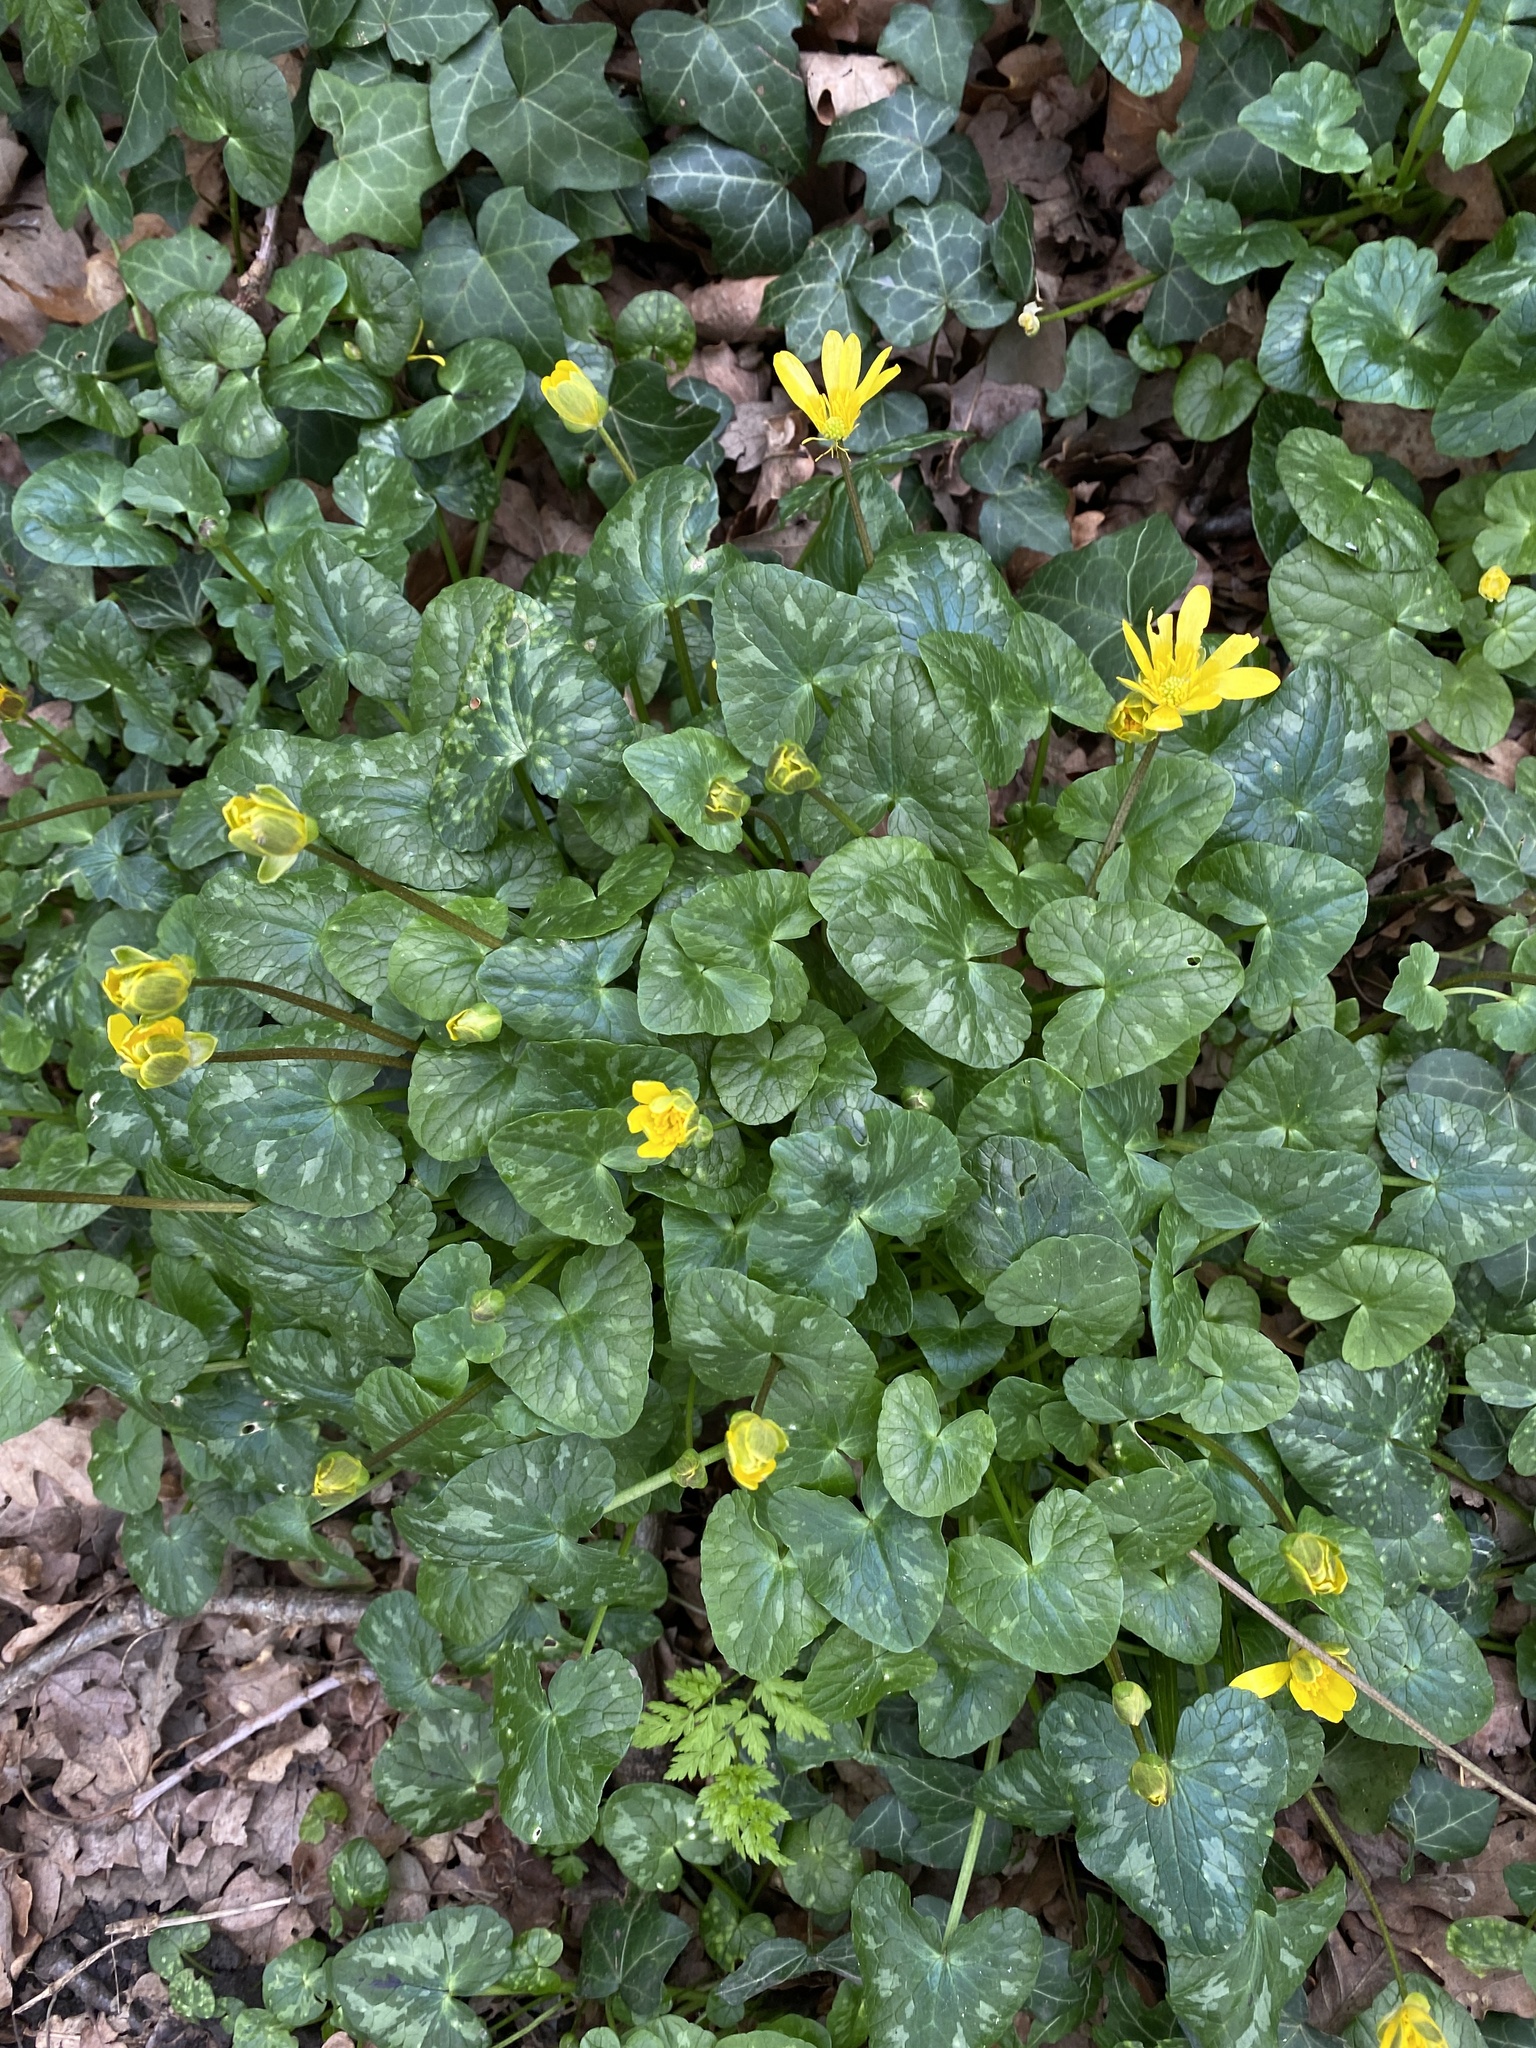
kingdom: Plantae
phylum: Tracheophyta
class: Magnoliopsida
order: Ranunculales
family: Ranunculaceae
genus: Ficaria
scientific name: Ficaria verna
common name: Lesser celandine
